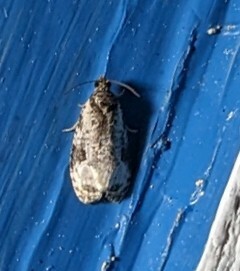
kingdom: Animalia
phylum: Arthropoda
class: Insecta
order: Lepidoptera
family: Tortricidae
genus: Apotomis
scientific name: Apotomis albeolana
